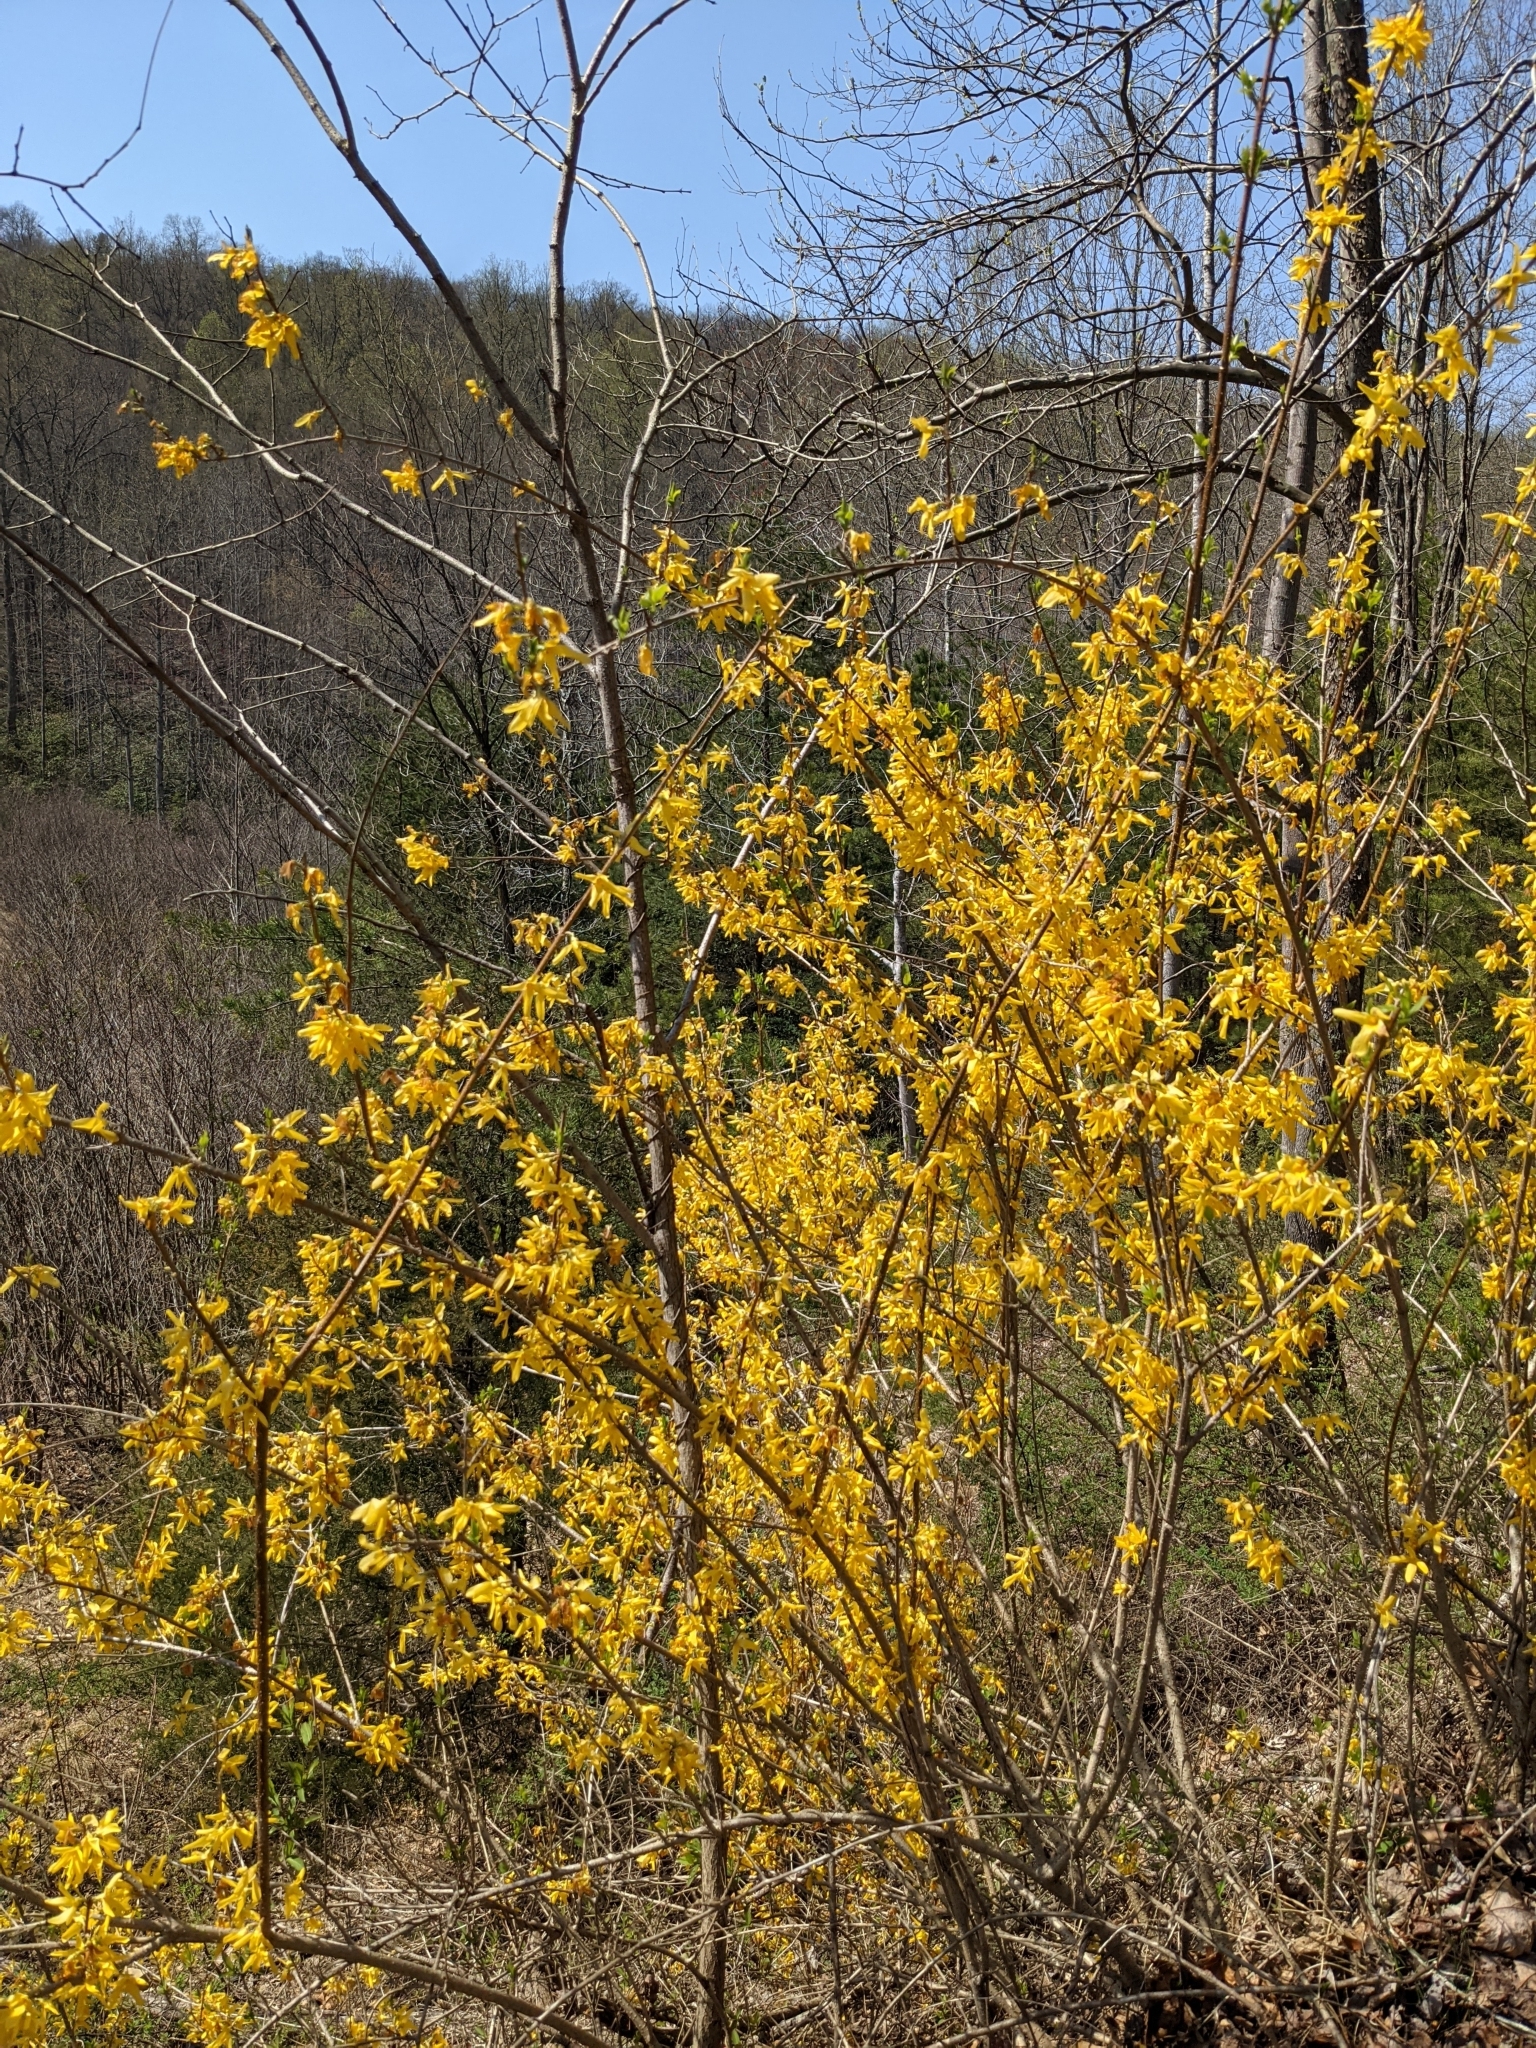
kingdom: Plantae
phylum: Tracheophyta
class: Magnoliopsida
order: Lamiales
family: Oleaceae
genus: Forsythia
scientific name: Forsythia intermedia
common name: Forsythia
